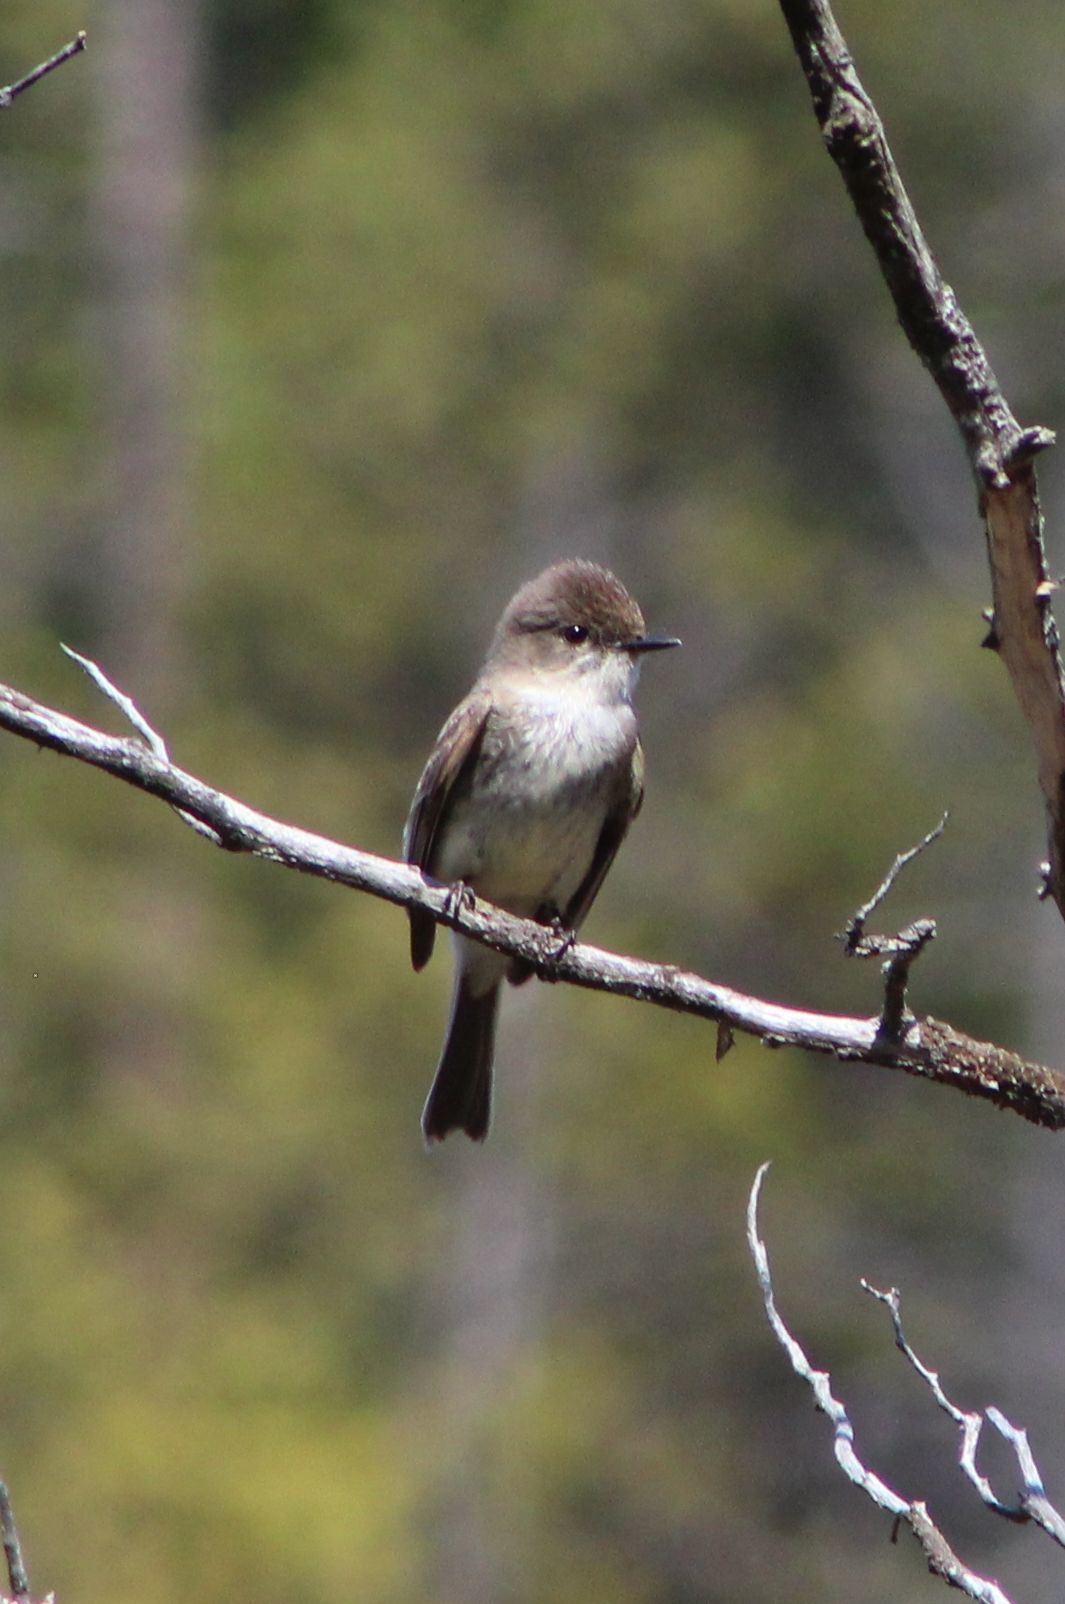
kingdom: Animalia
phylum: Chordata
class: Aves
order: Passeriformes
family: Tyrannidae
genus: Sayornis
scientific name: Sayornis phoebe
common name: Eastern phoebe
